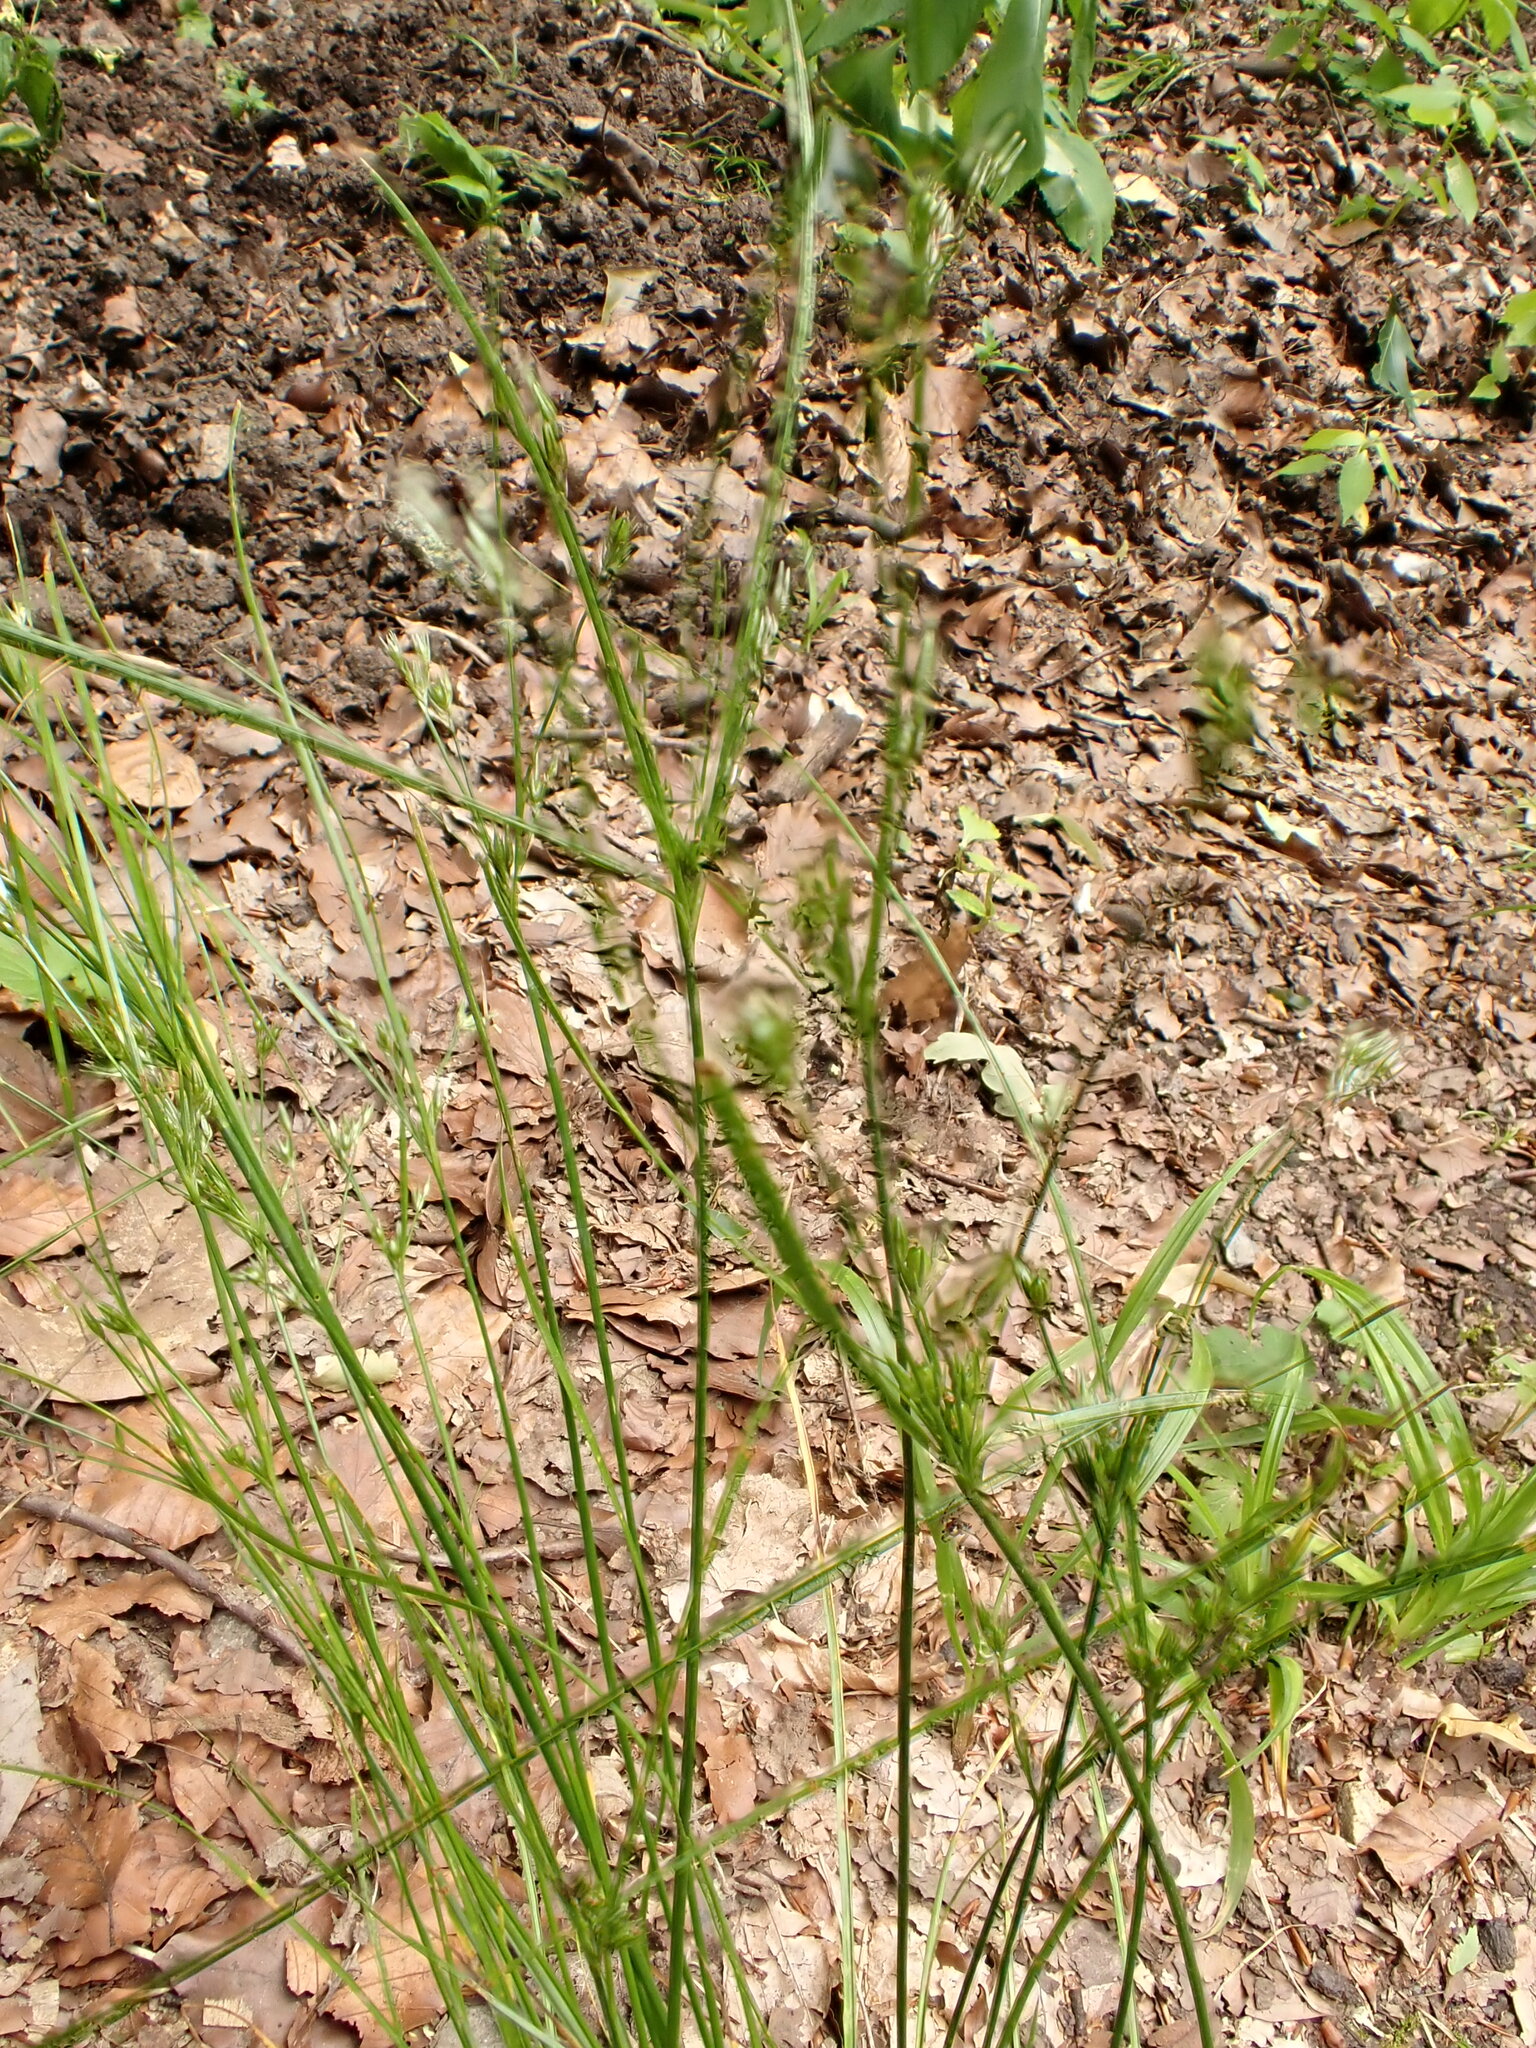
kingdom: Plantae
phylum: Tracheophyta
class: Liliopsida
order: Poales
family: Juncaceae
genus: Juncus
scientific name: Juncus tenuis
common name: Slender rush
